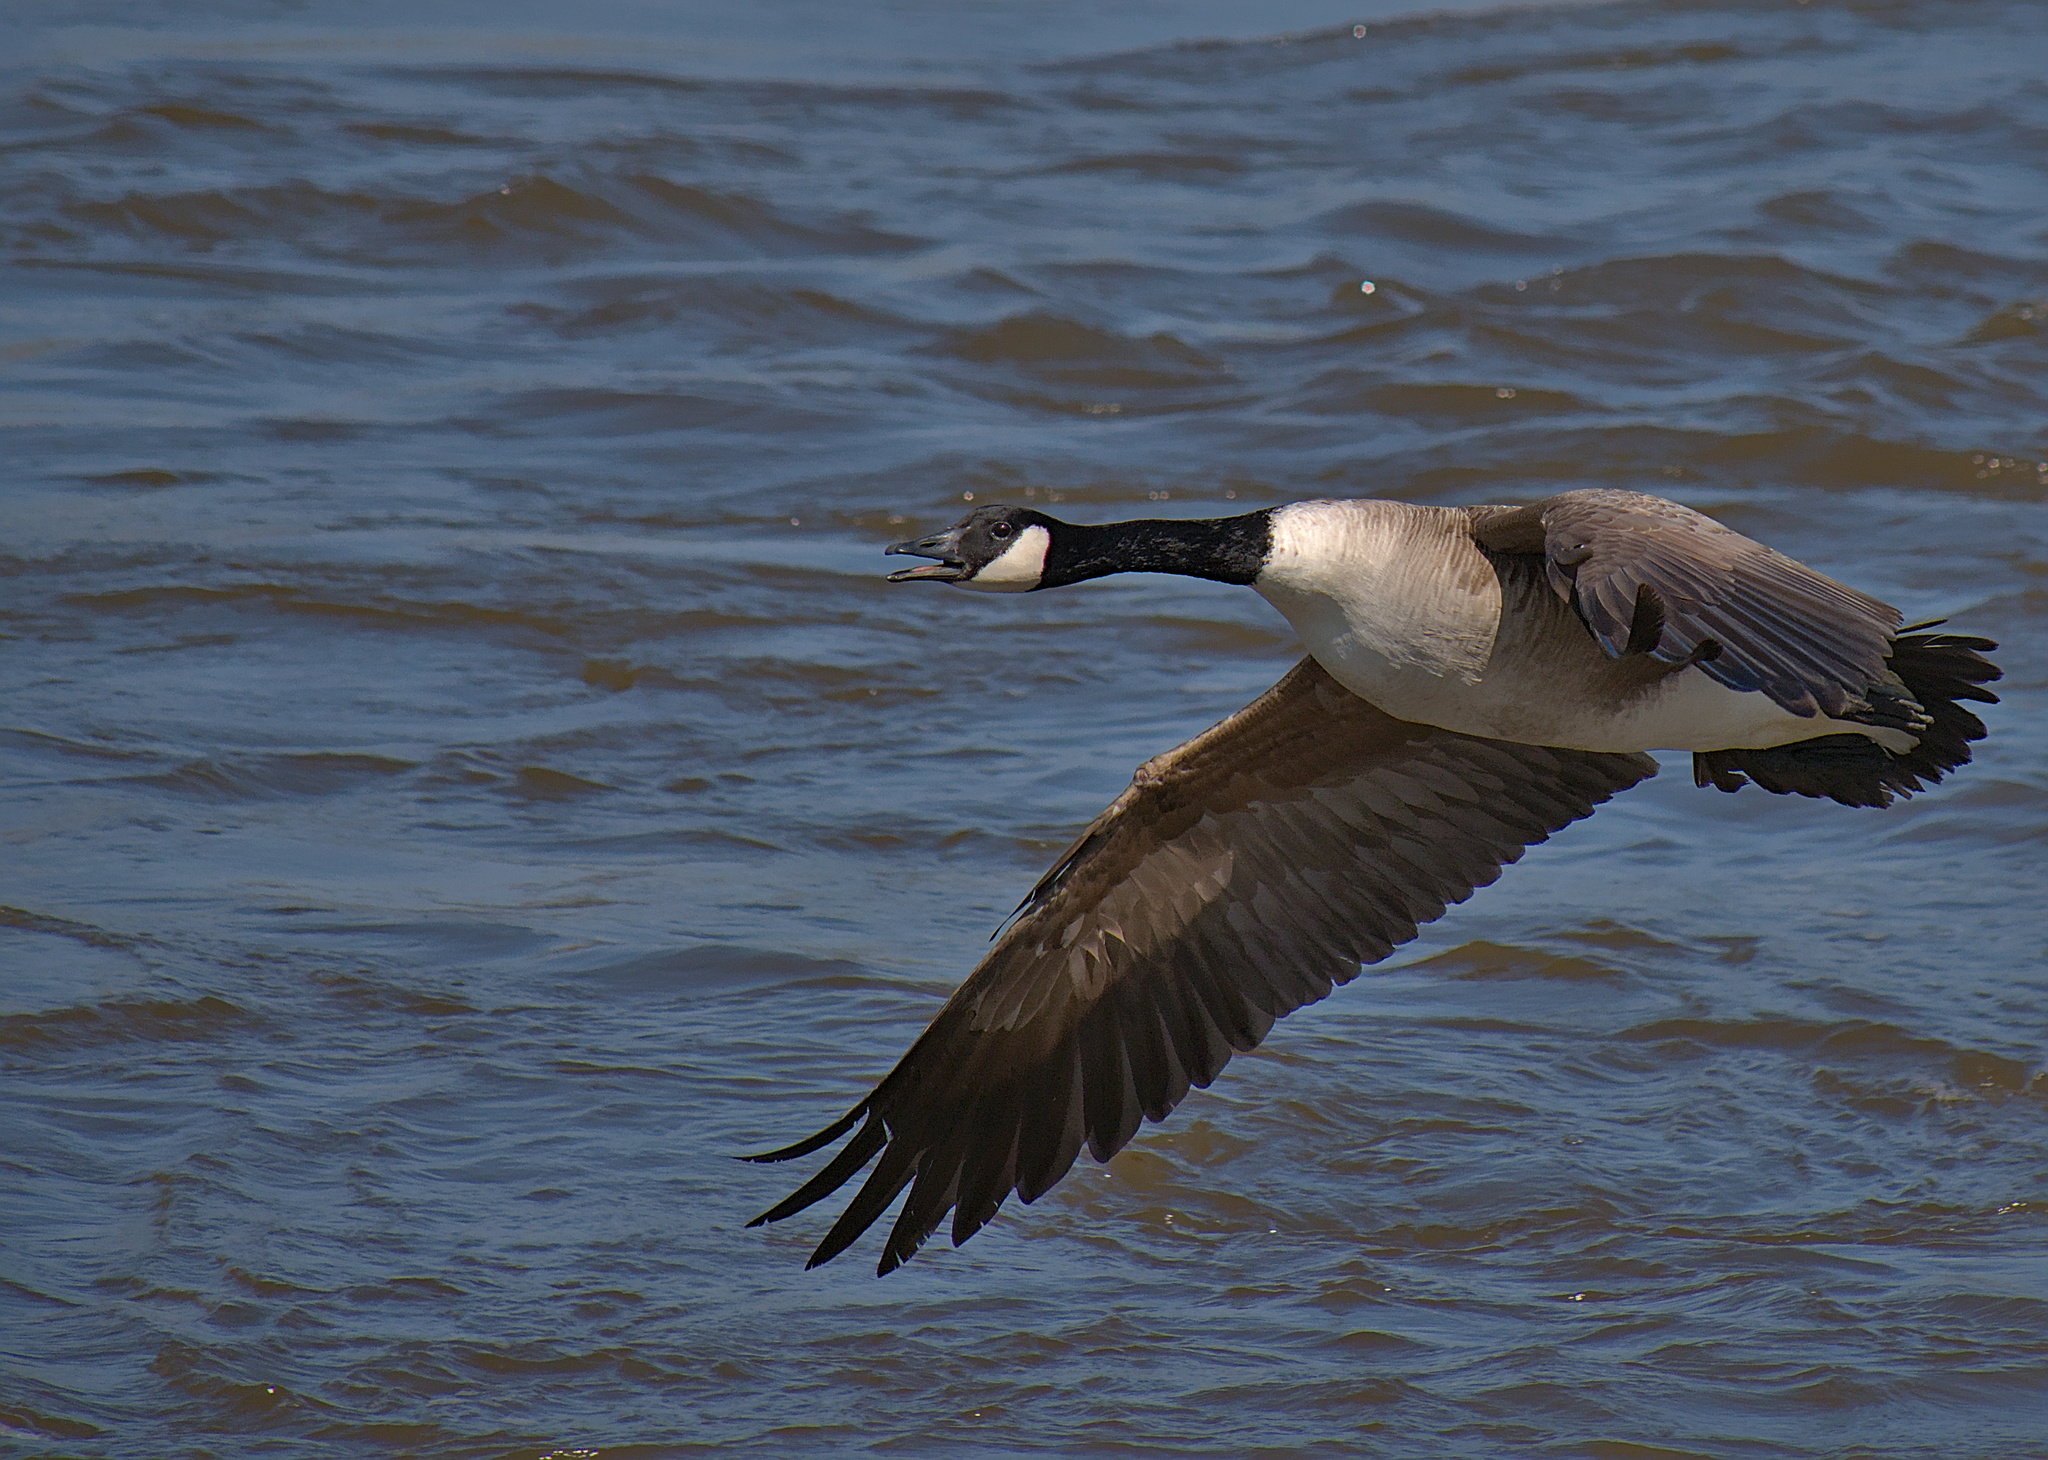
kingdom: Animalia
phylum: Chordata
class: Aves
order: Anseriformes
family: Anatidae
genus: Branta
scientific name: Branta canadensis
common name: Canada goose
